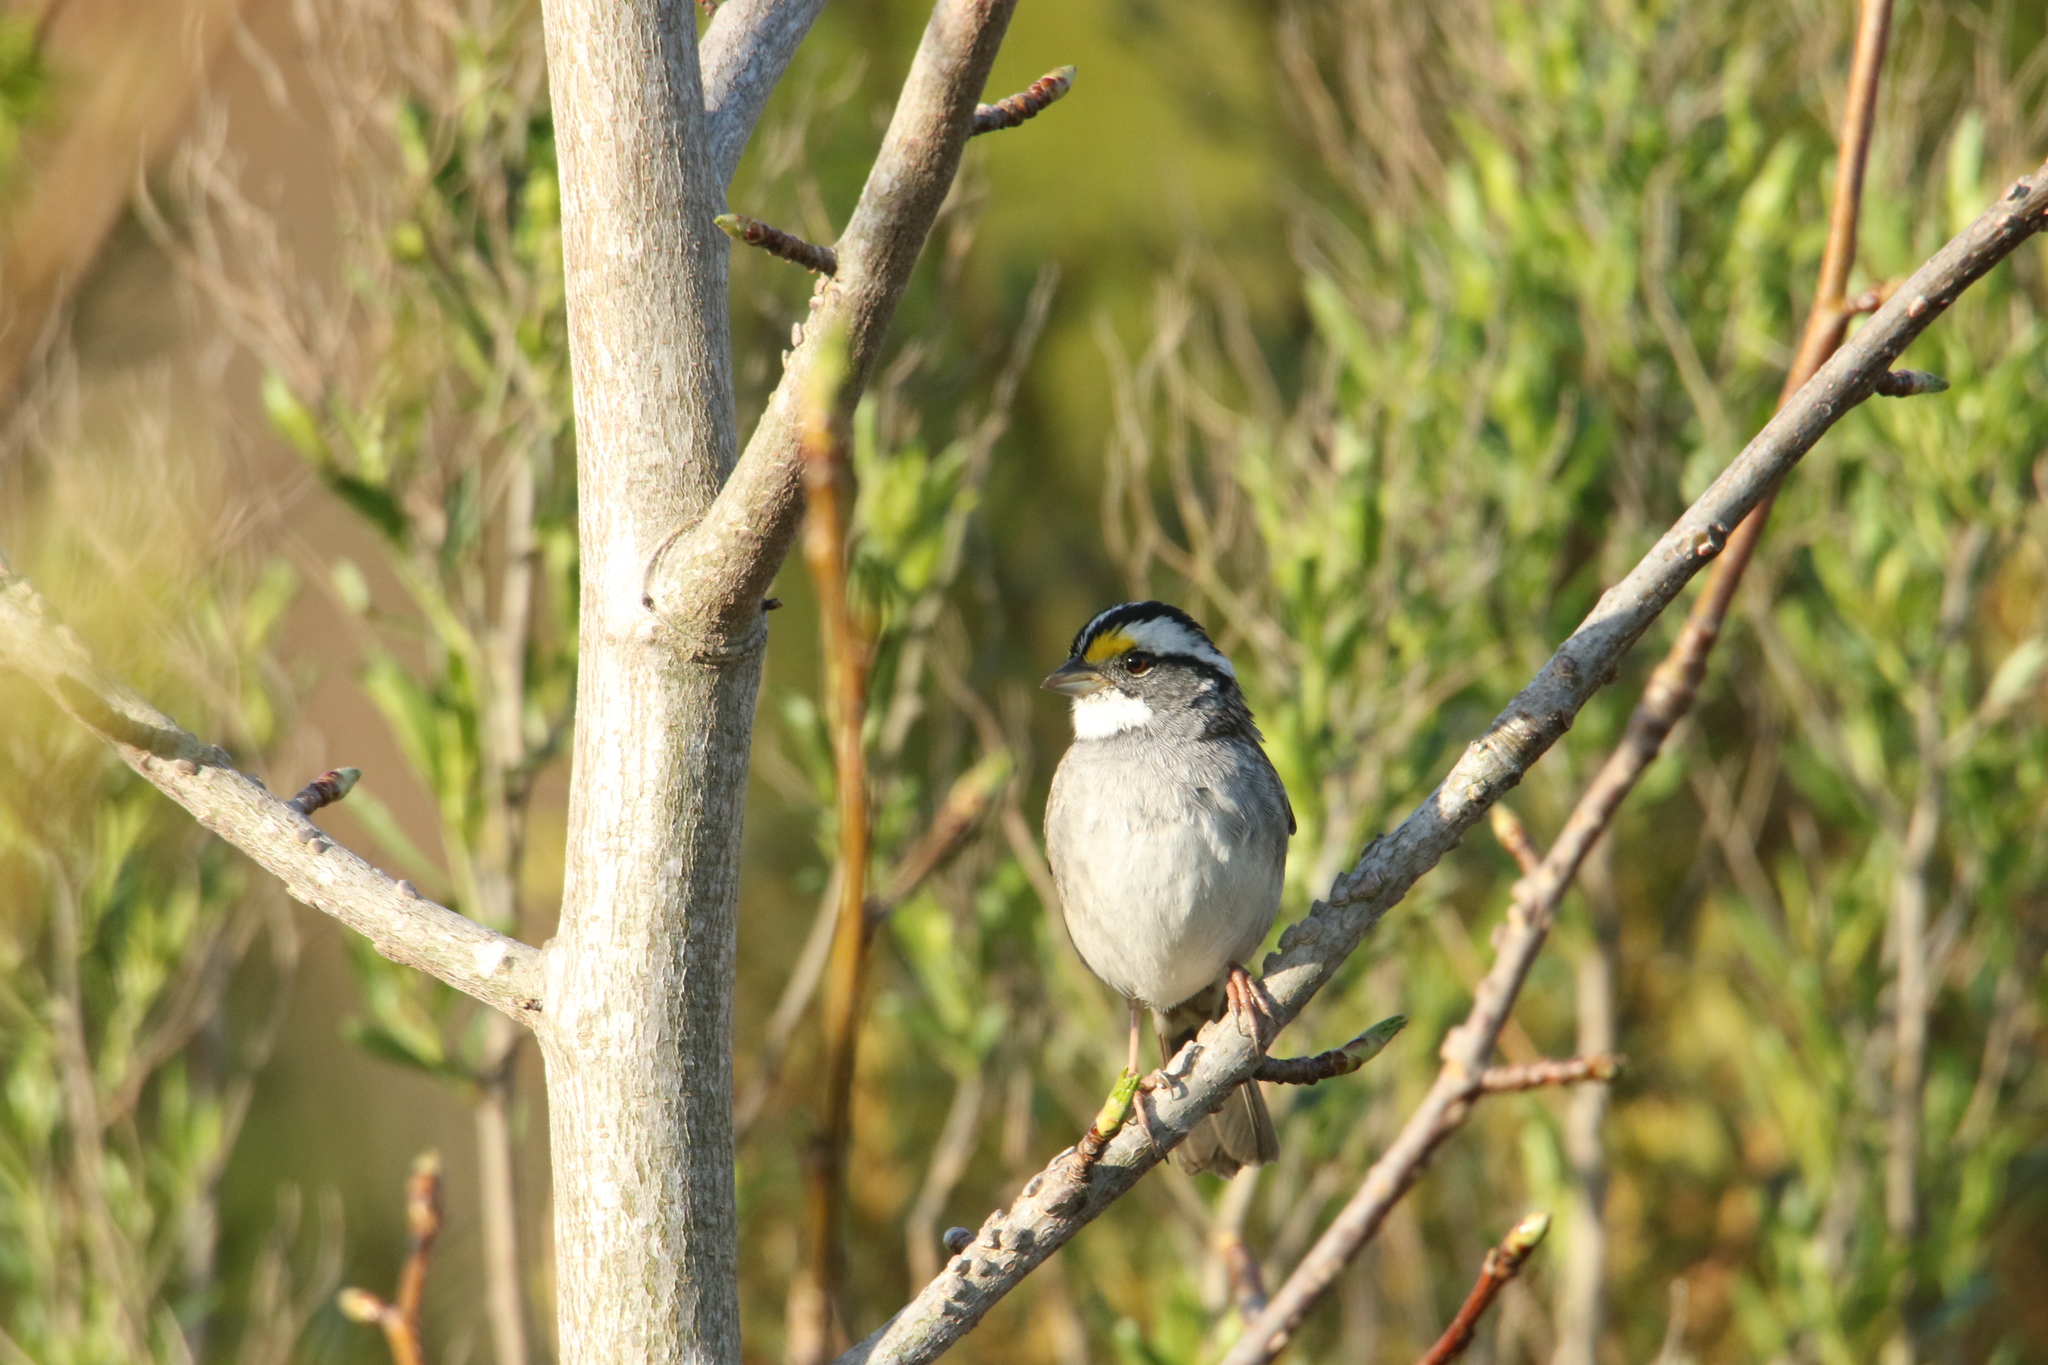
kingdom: Animalia
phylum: Chordata
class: Aves
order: Passeriformes
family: Passerellidae
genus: Zonotrichia
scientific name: Zonotrichia albicollis
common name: White-throated sparrow
